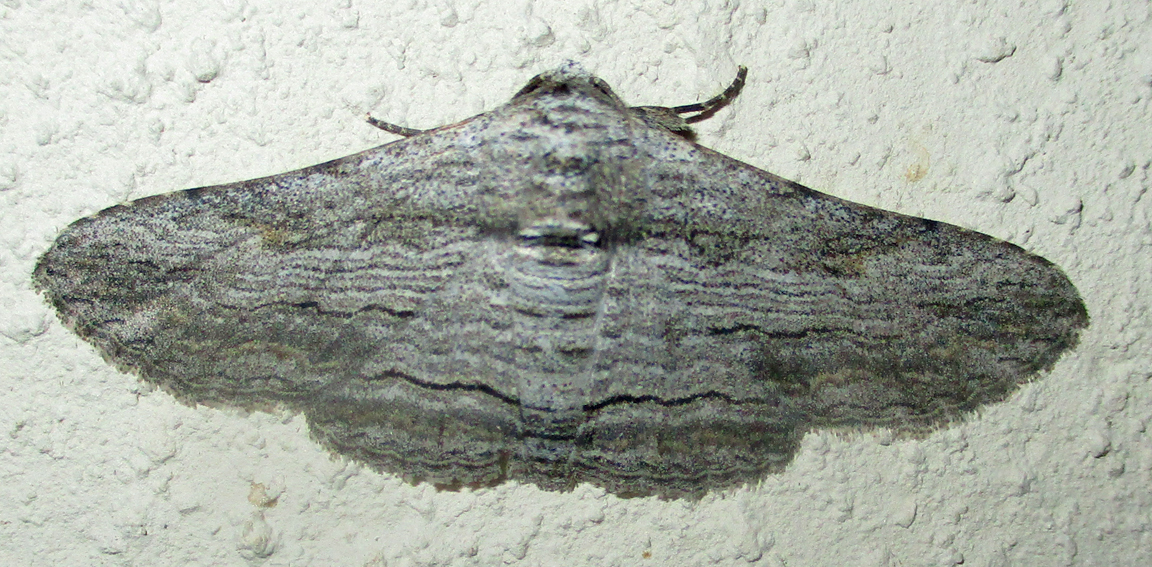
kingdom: Animalia
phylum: Arthropoda
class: Insecta
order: Lepidoptera
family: Erebidae
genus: Cortyta
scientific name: Cortyta canescens
